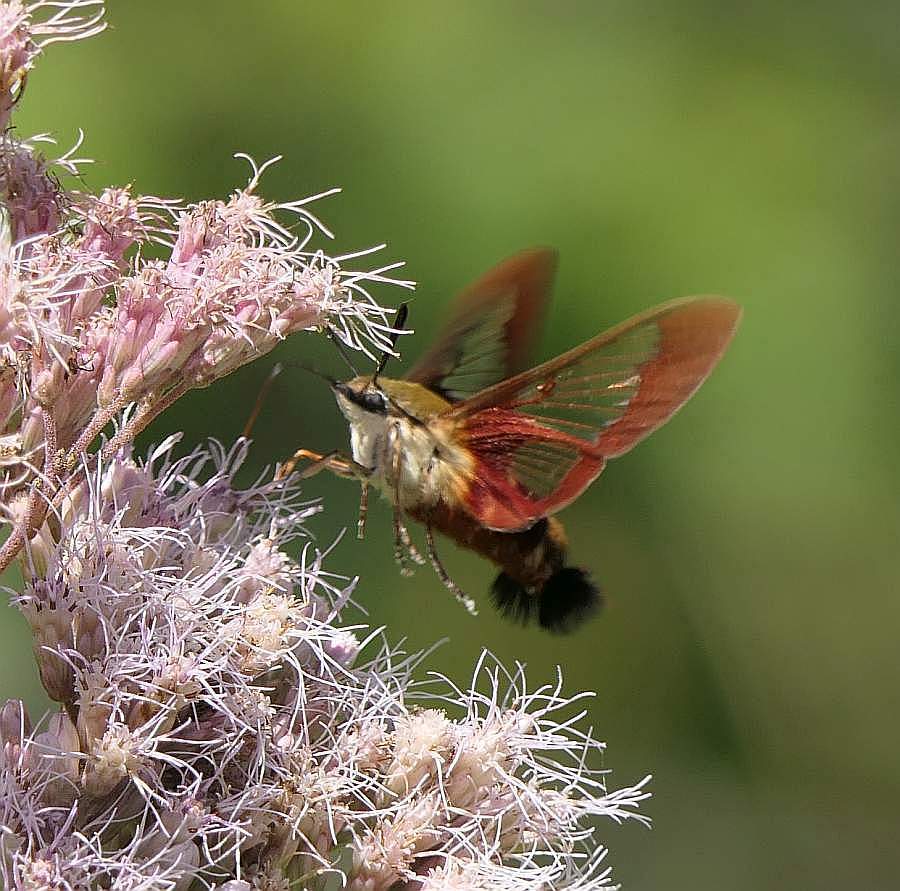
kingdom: Animalia
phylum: Arthropoda
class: Insecta
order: Lepidoptera
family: Sphingidae
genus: Hemaris
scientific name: Hemaris thysbe
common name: Common clear-wing
